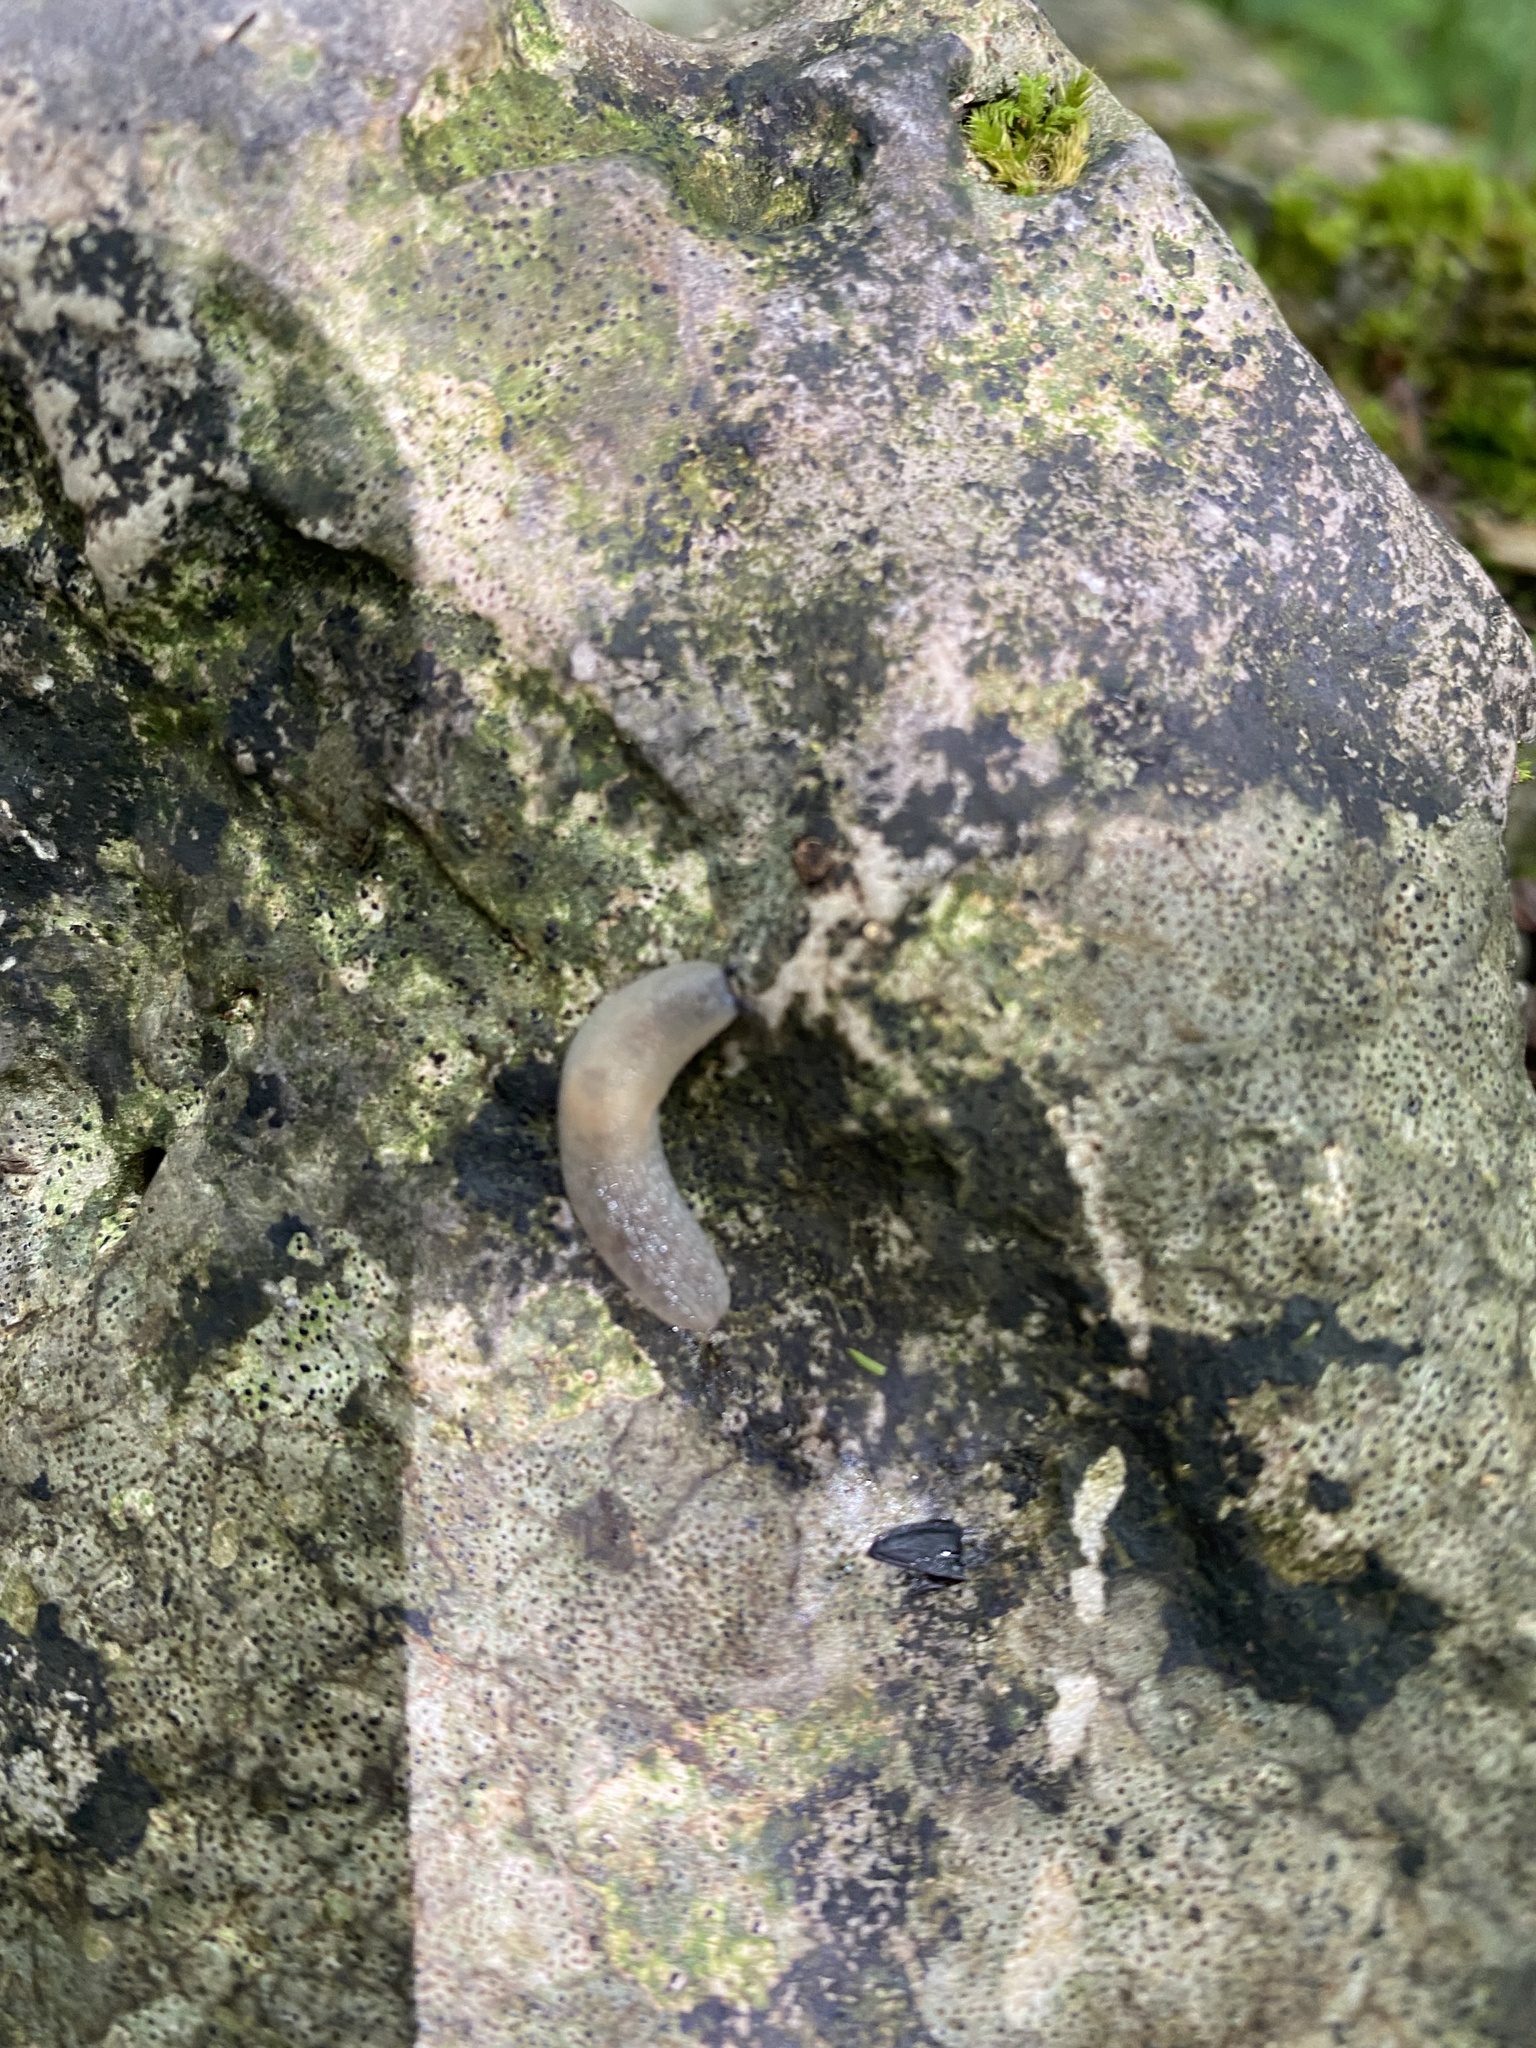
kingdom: Animalia
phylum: Mollusca
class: Gastropoda
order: Stylommatophora
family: Agriolimacidae
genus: Krynickillus
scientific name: Krynickillus melanocephalus
